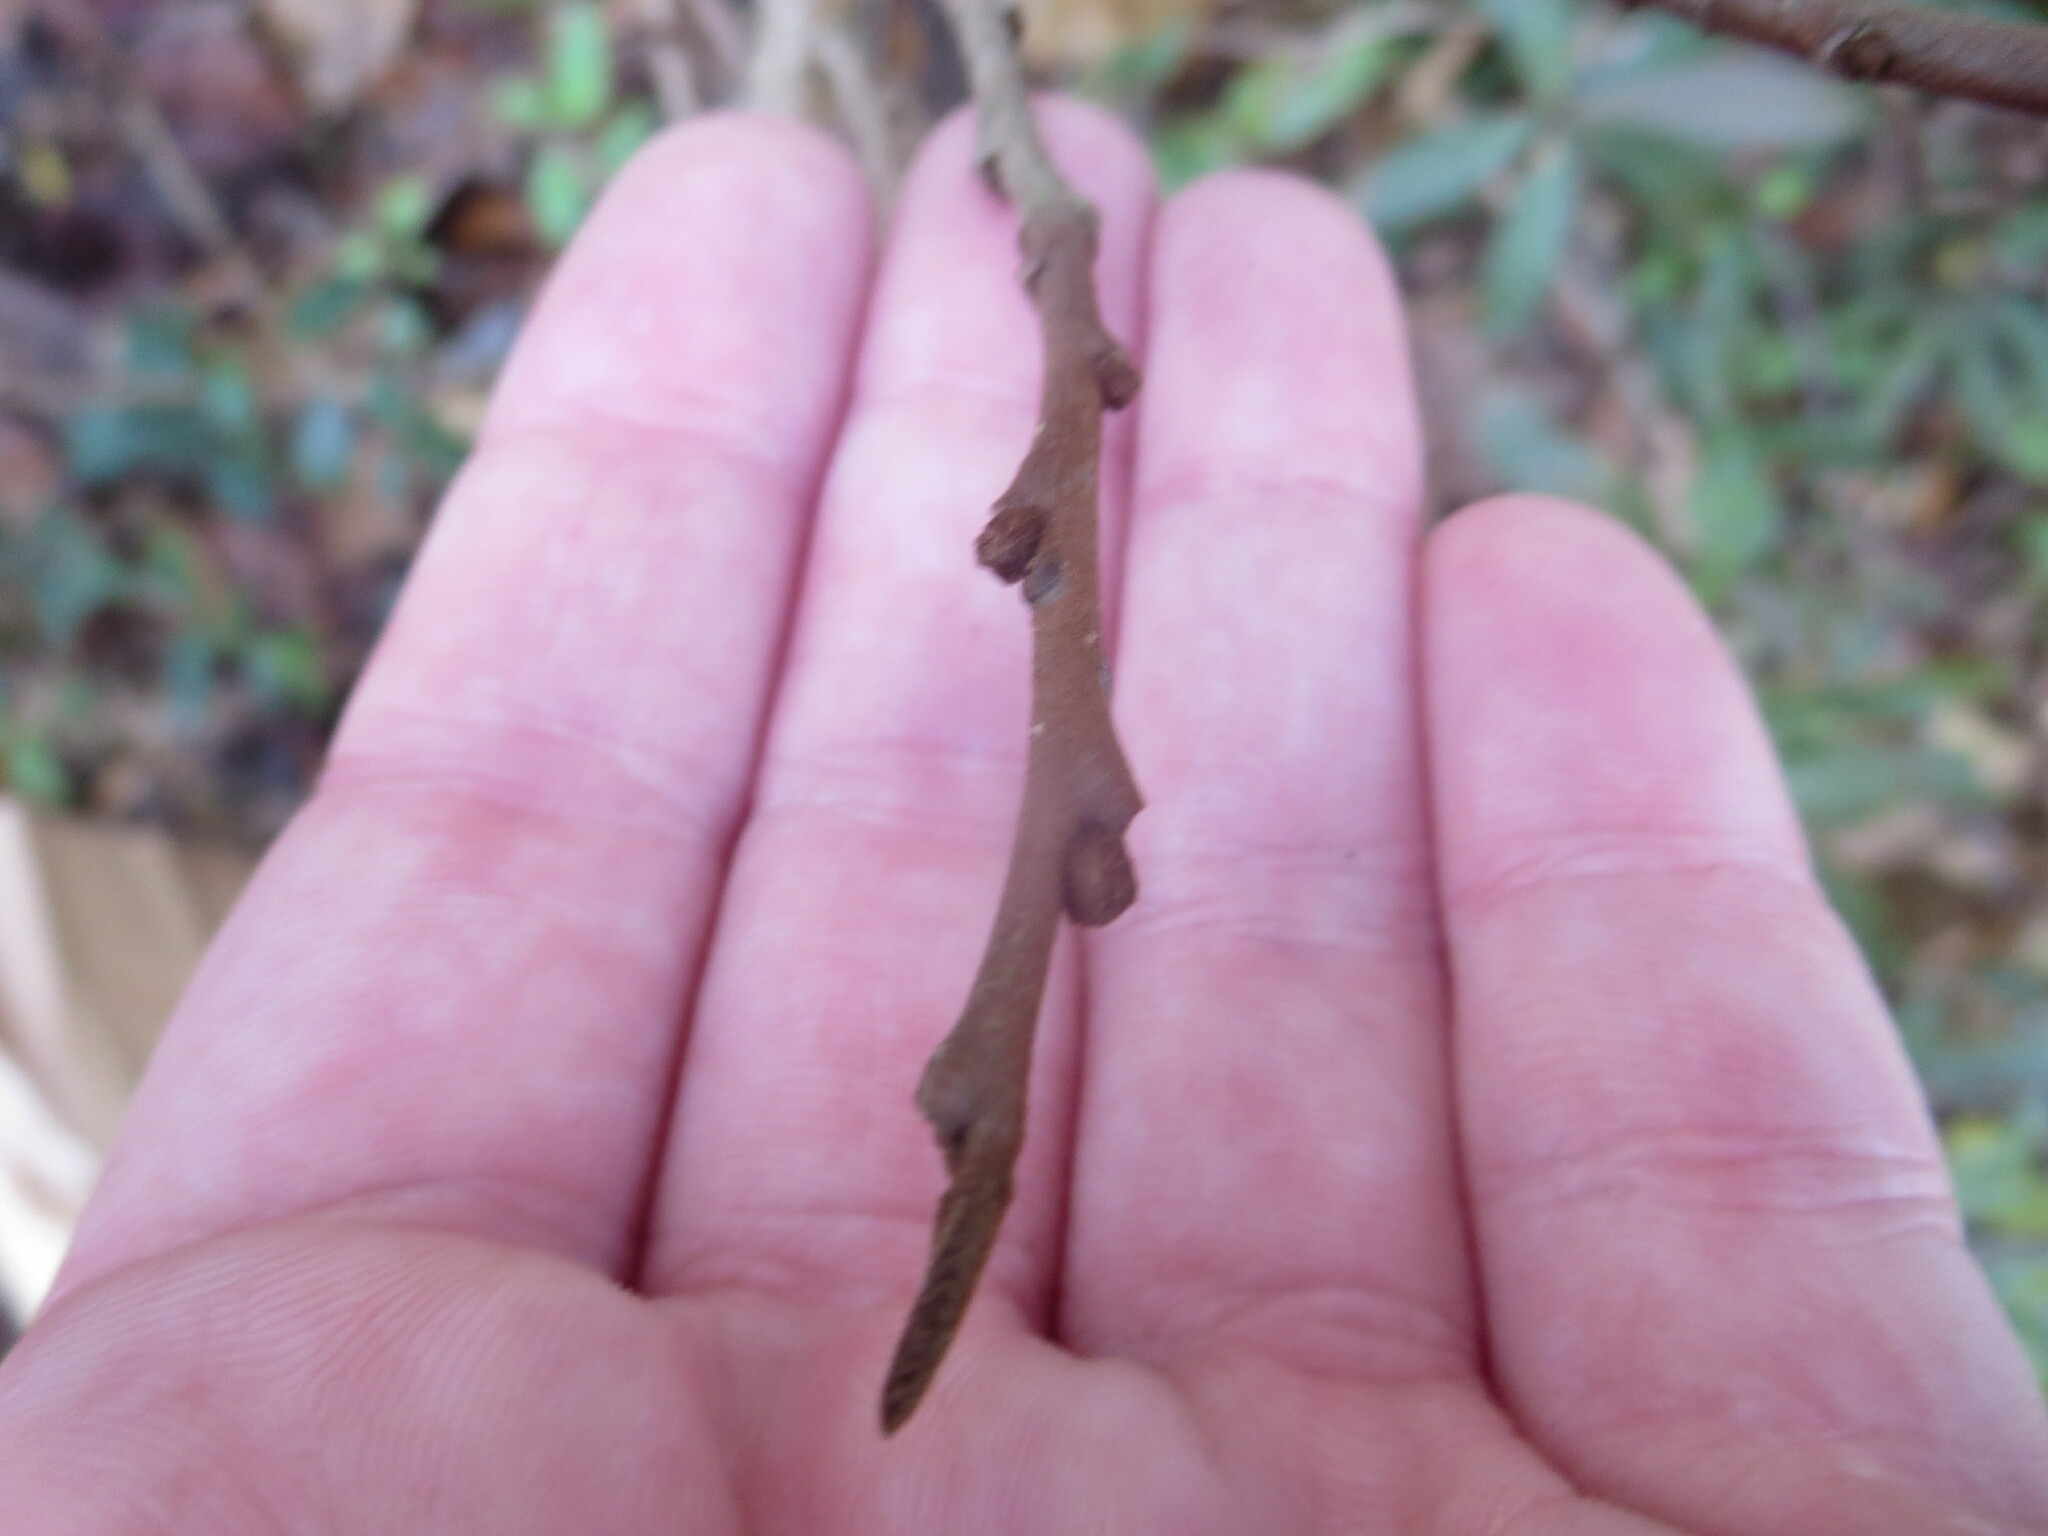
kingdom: Plantae
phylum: Tracheophyta
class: Magnoliopsida
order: Magnoliales
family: Annonaceae
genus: Asimina
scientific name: Asimina parviflora
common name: Dwarf pawpaw
